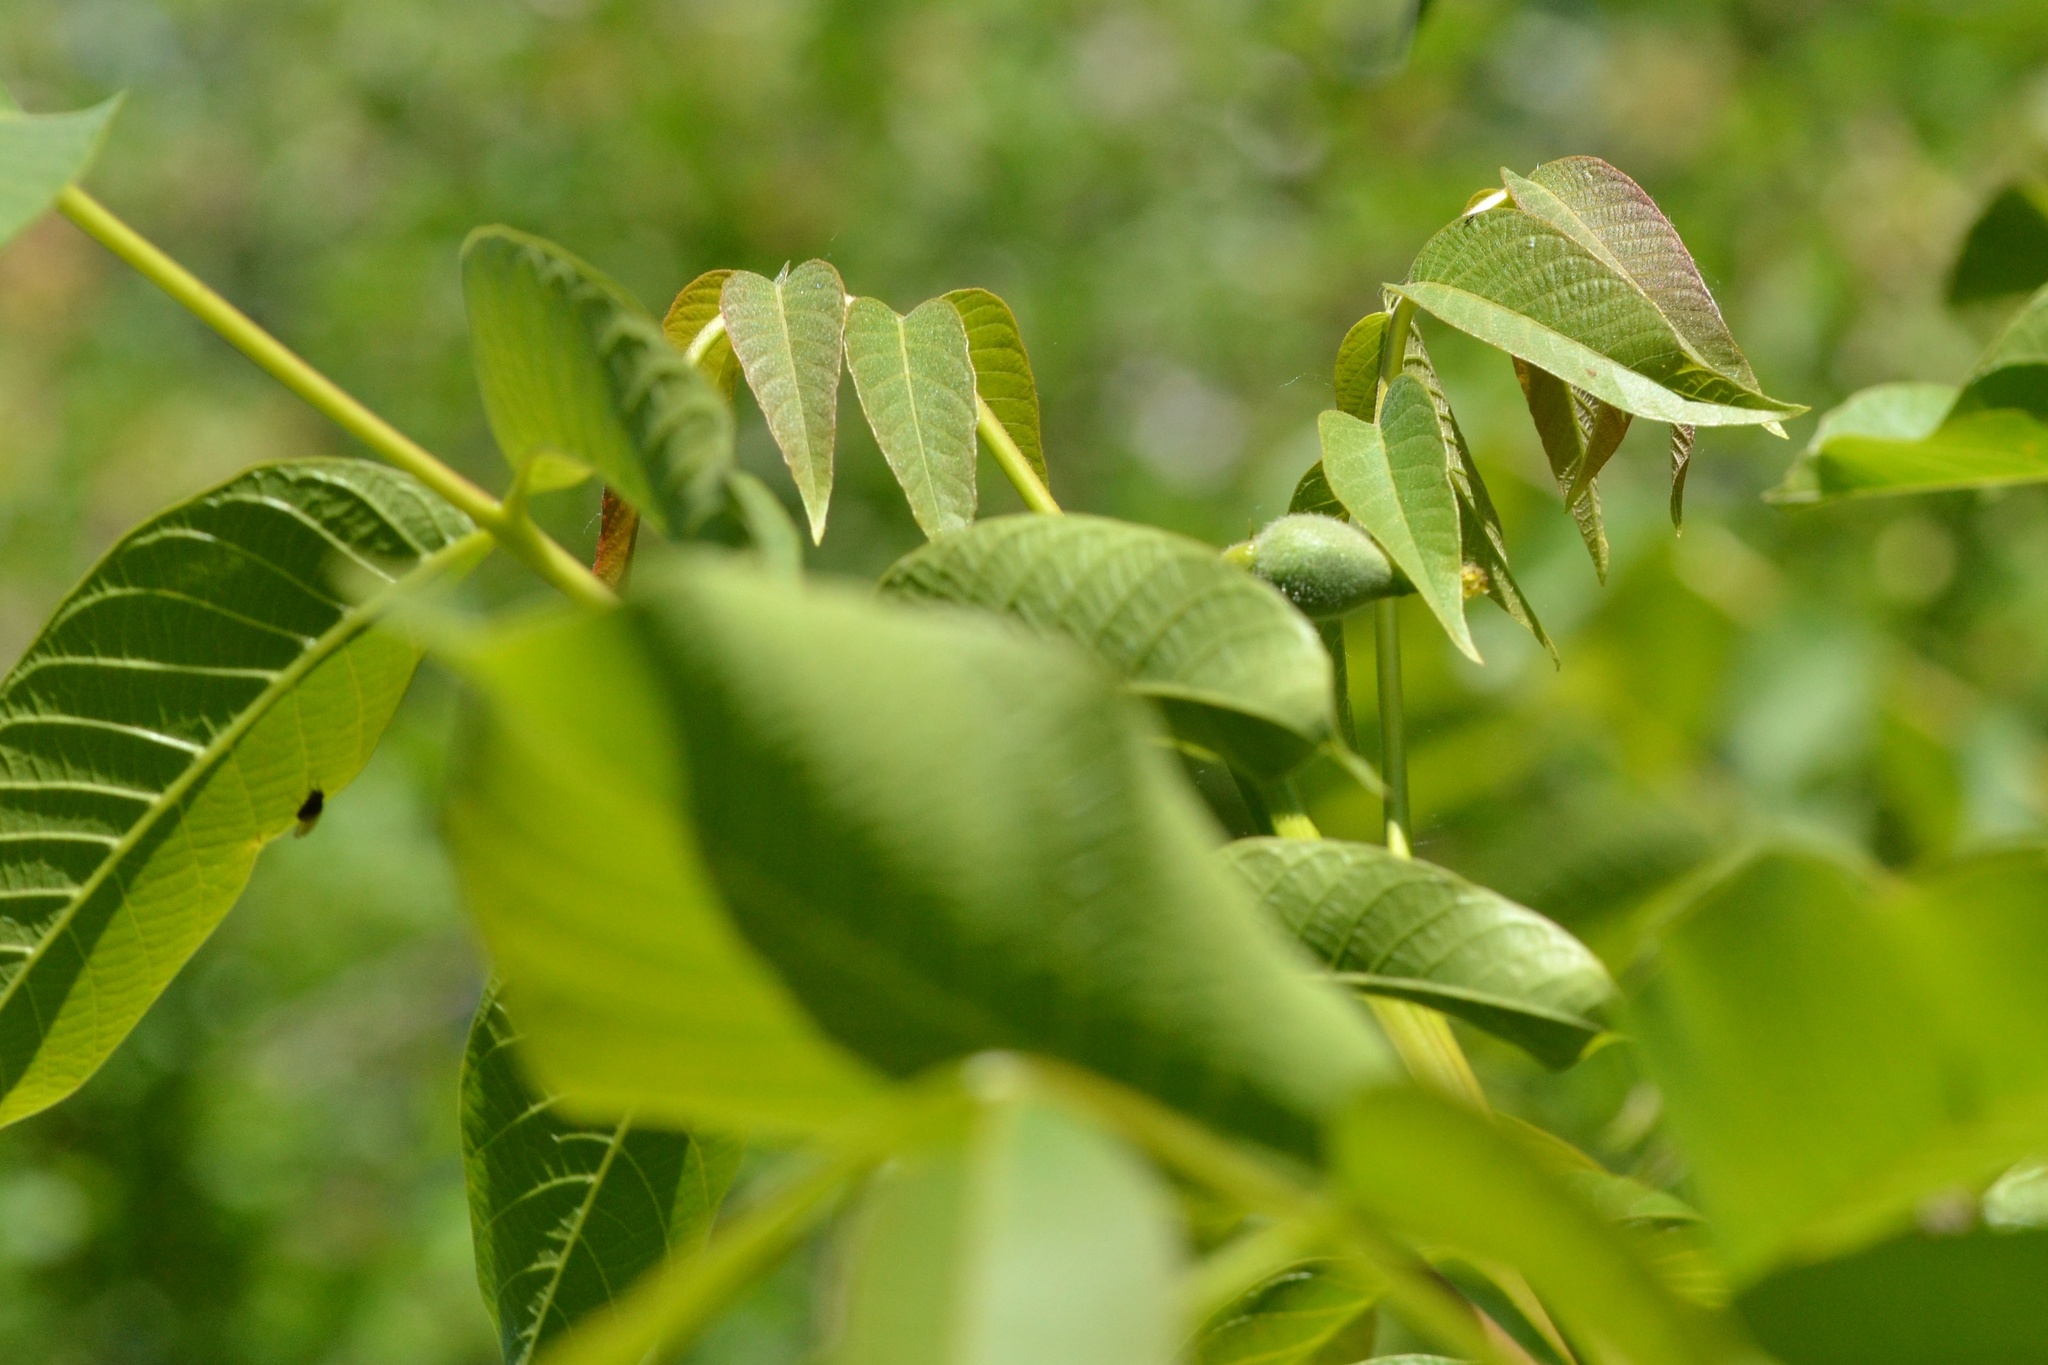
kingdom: Plantae
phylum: Tracheophyta
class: Magnoliopsida
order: Fagales
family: Juglandaceae
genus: Juglans
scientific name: Juglans regia
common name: Walnut
